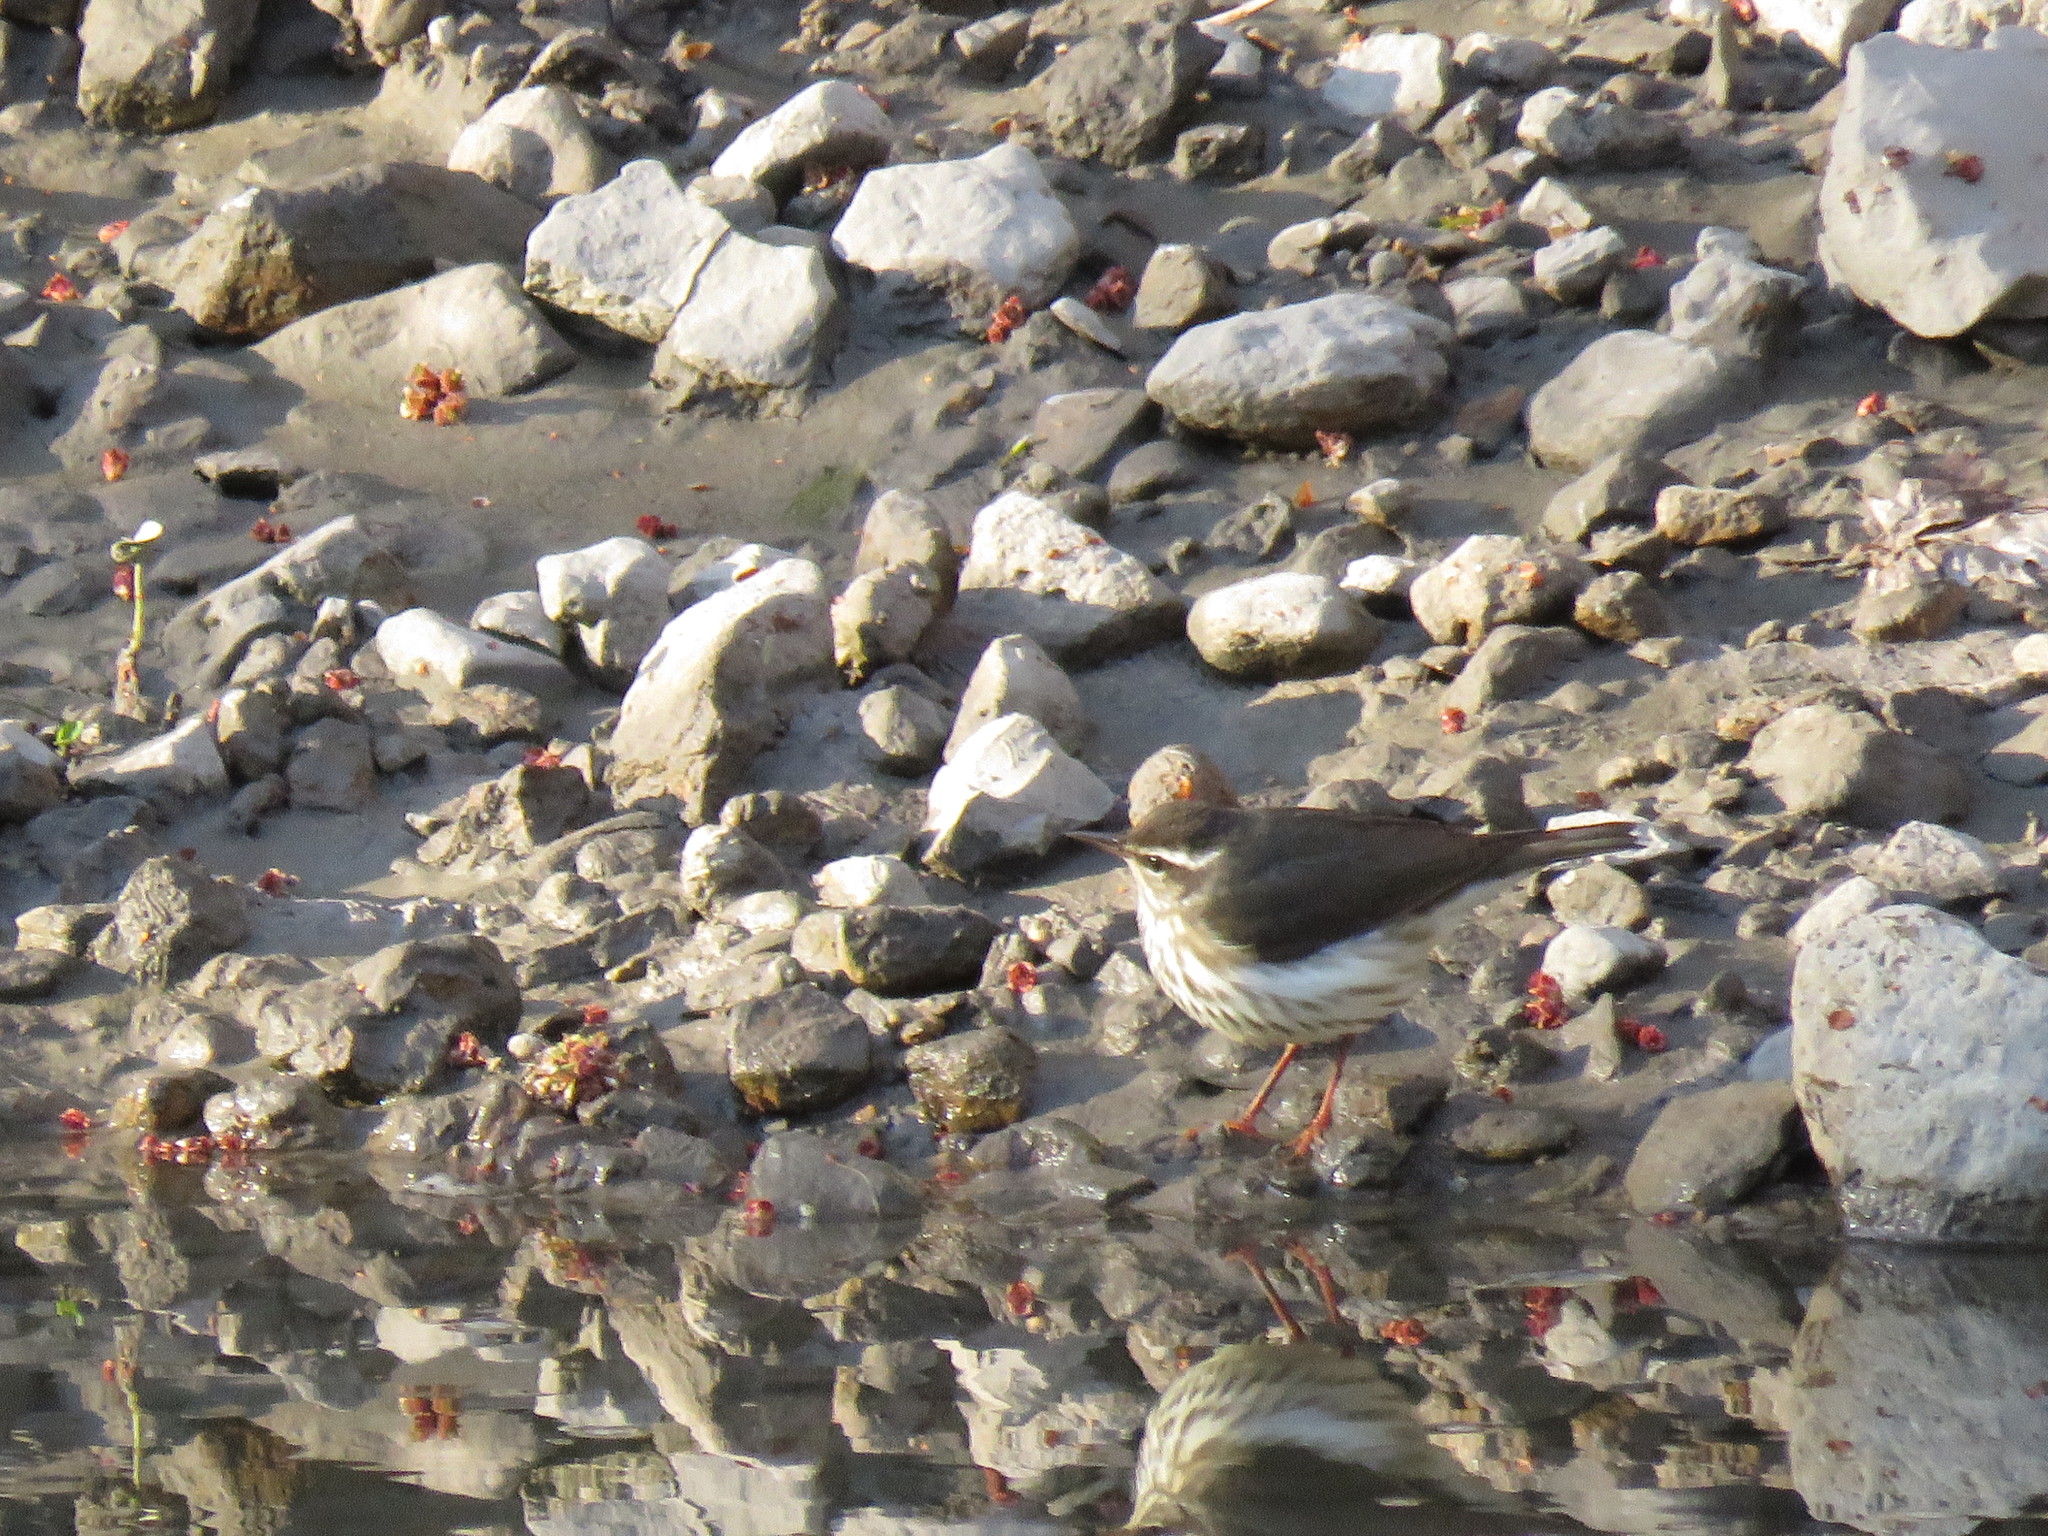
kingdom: Animalia
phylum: Chordata
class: Aves
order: Passeriformes
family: Parulidae
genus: Parkesia
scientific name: Parkesia motacilla
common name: Louisiana waterthrush
